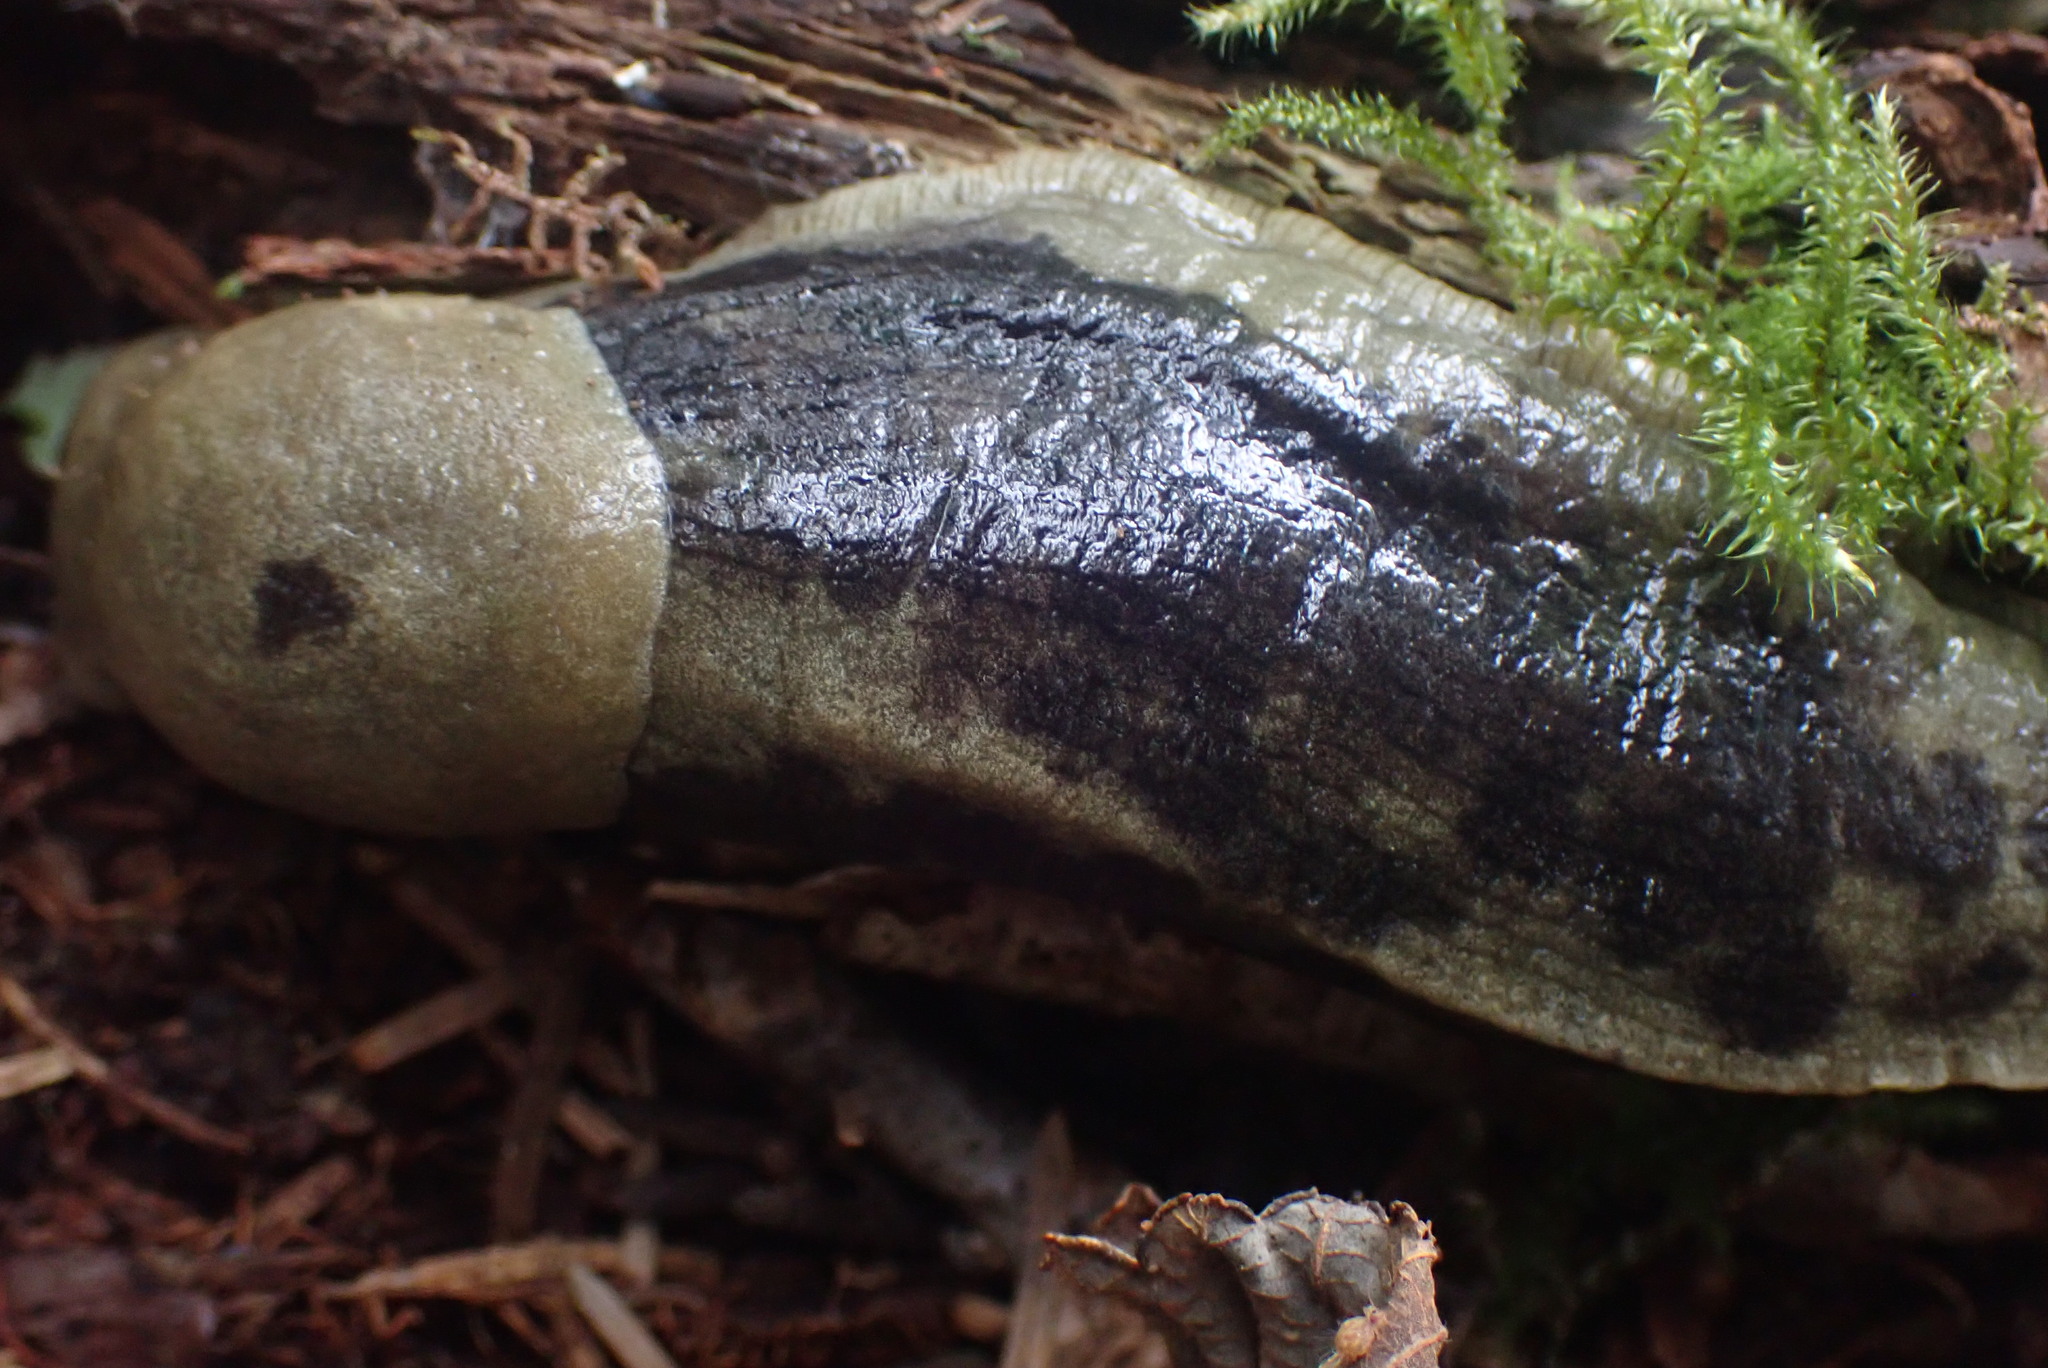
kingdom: Animalia
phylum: Mollusca
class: Gastropoda
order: Stylommatophora
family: Ariolimacidae
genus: Ariolimax
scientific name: Ariolimax columbianus
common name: Pacific banana slug
